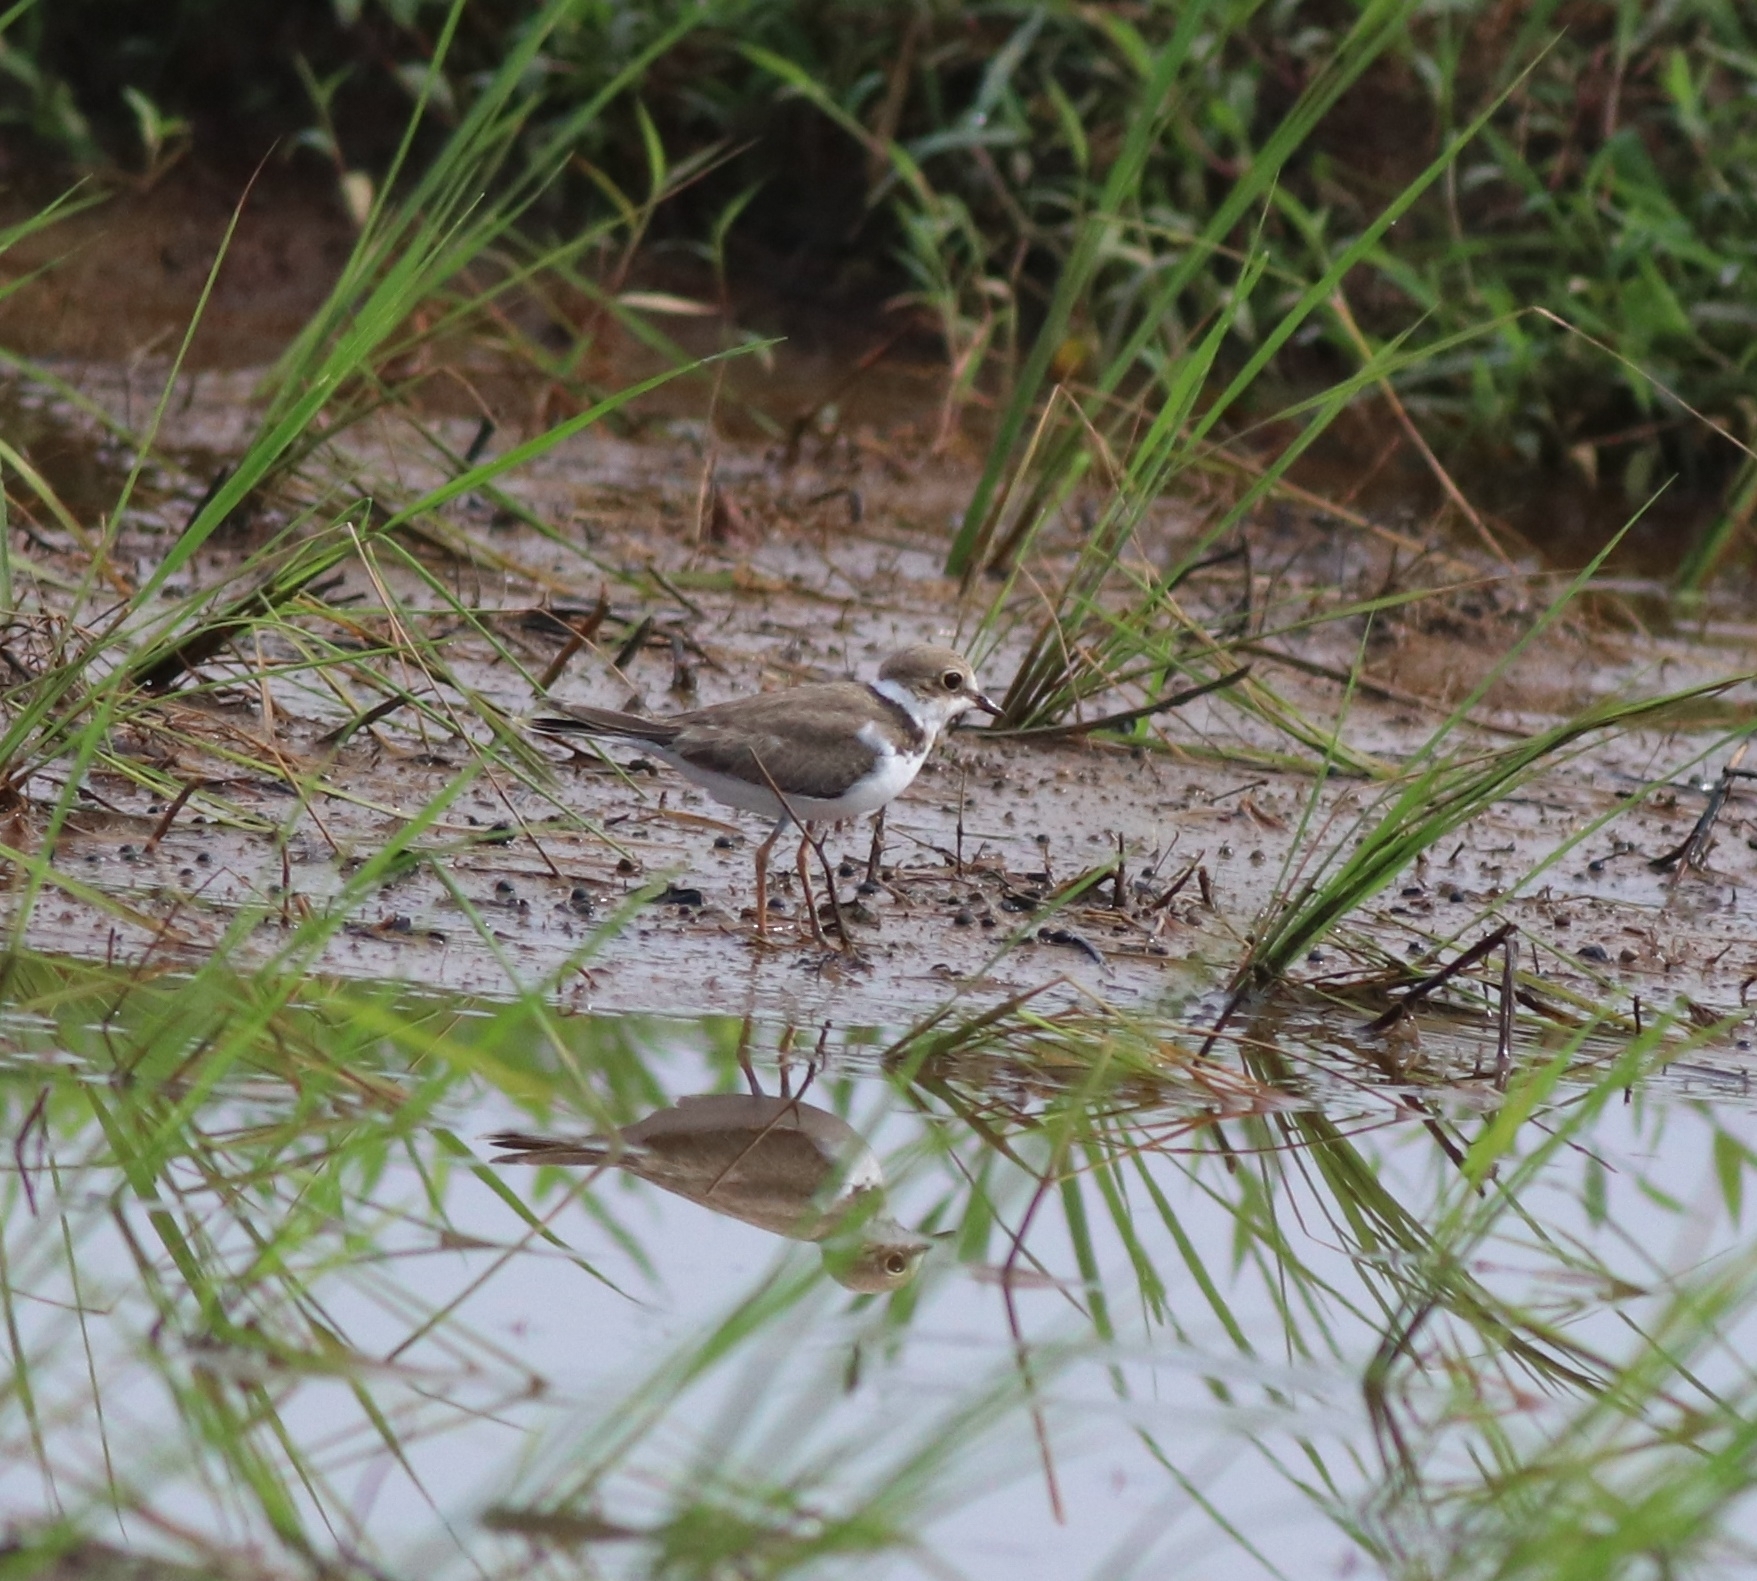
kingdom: Animalia
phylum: Chordata
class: Aves
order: Charadriiformes
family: Charadriidae
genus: Charadrius
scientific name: Charadrius dubius
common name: Little ringed plover
